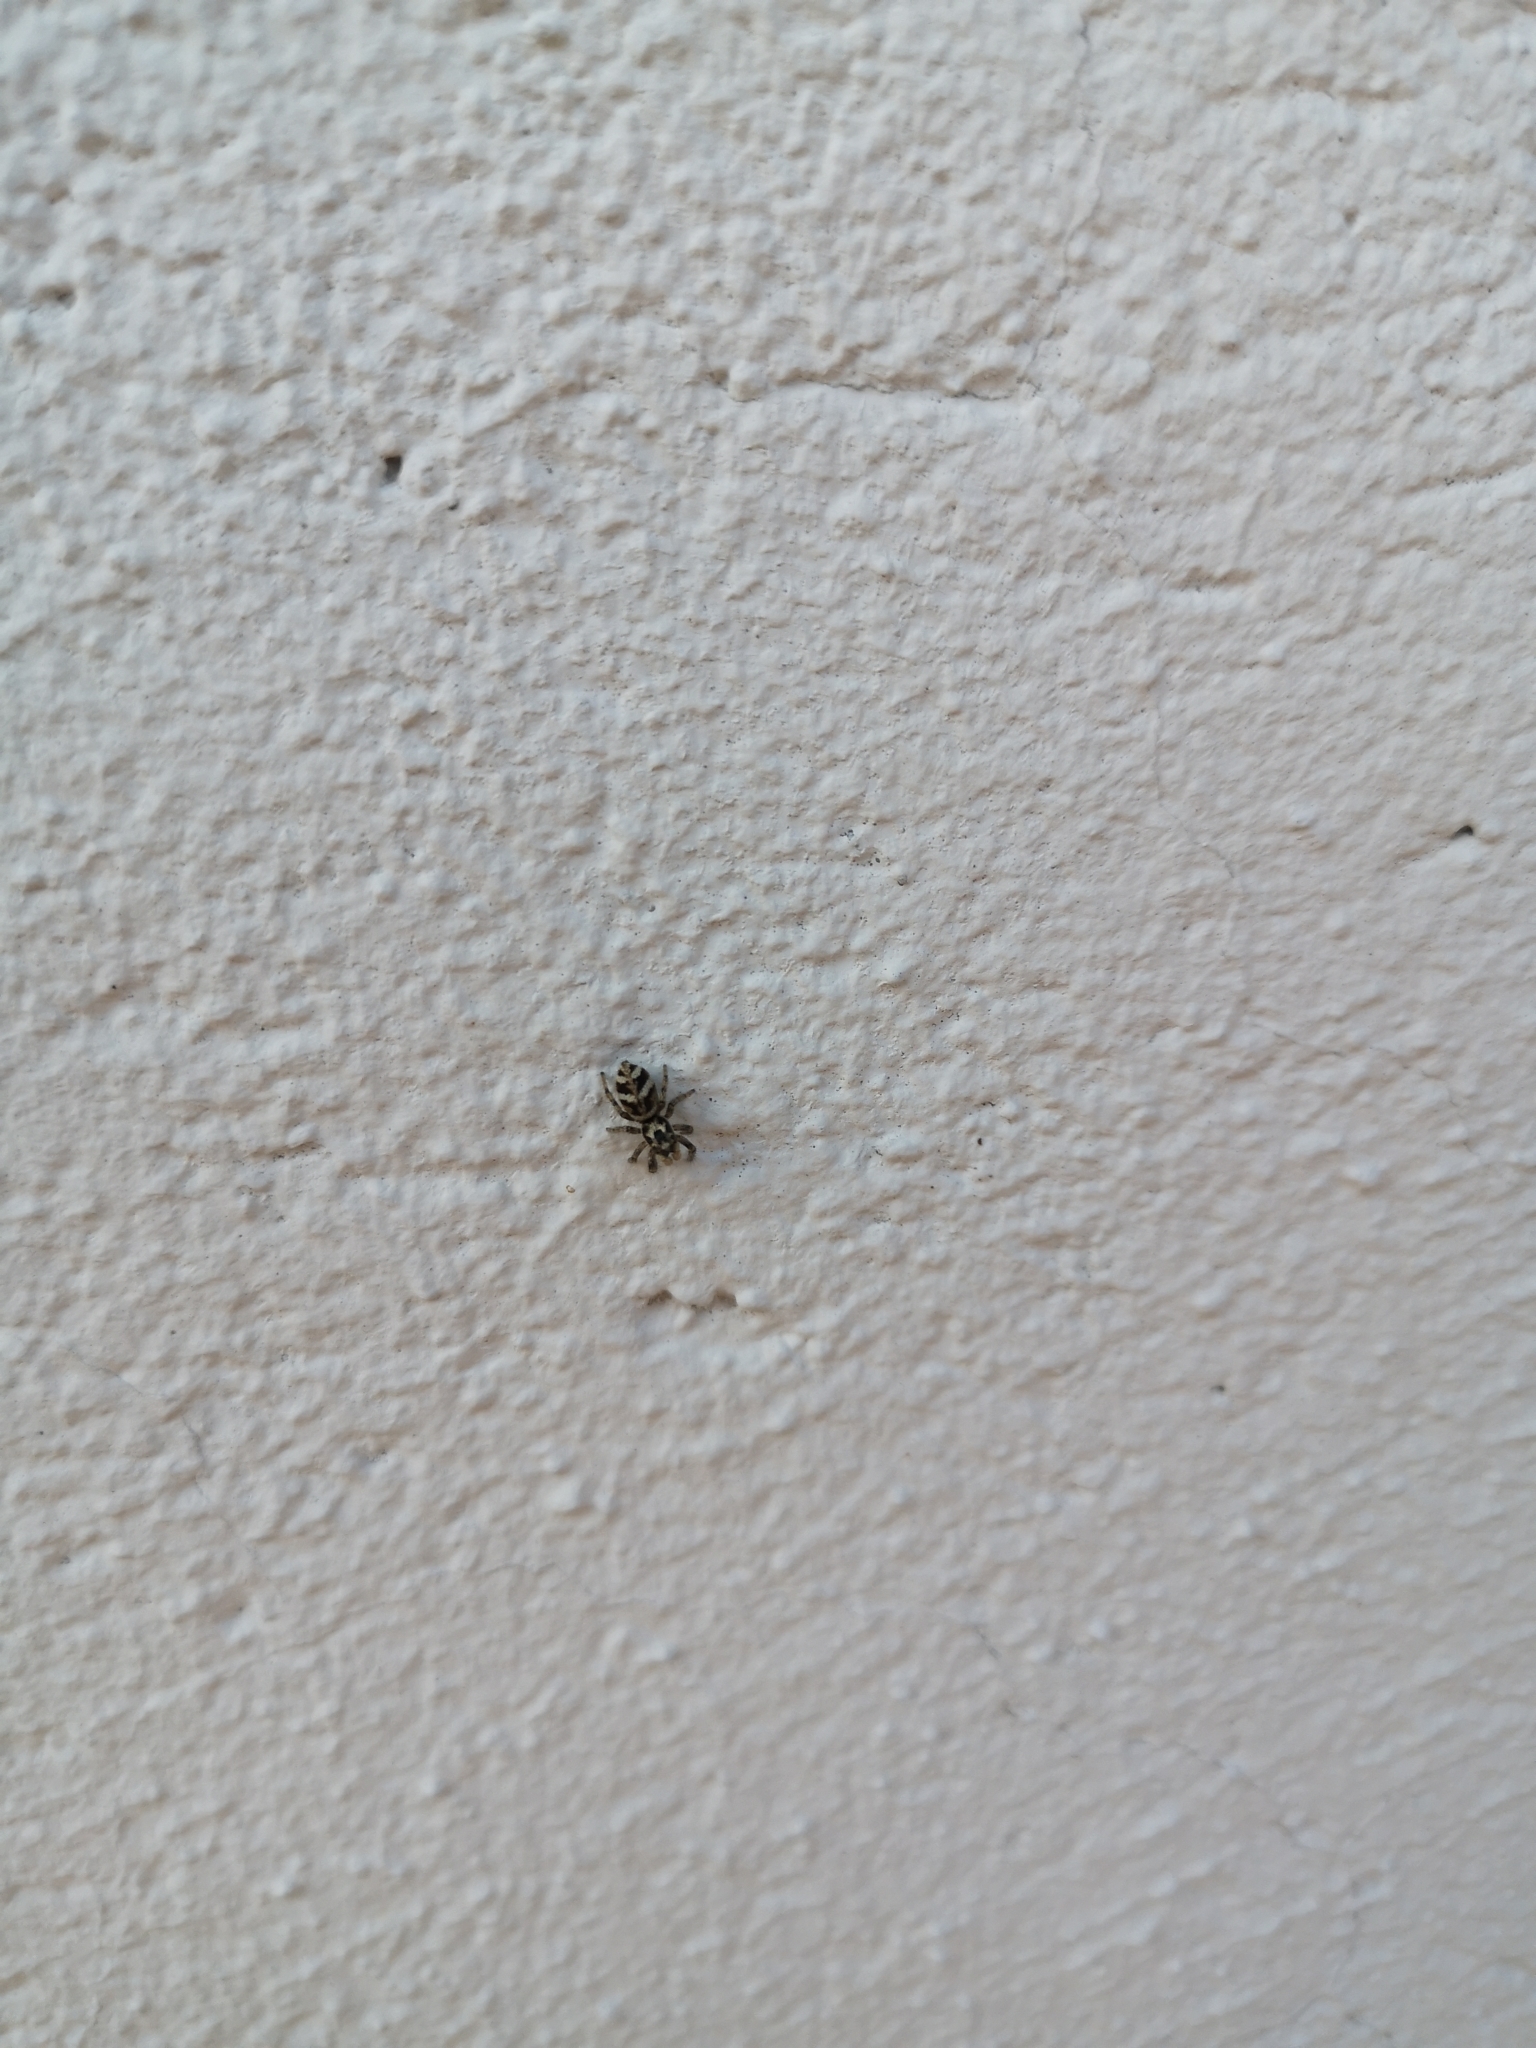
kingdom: Animalia
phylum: Arthropoda
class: Arachnida
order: Araneae
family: Salticidae
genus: Salticus
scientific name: Salticus scenicus
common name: Zebra jumper
